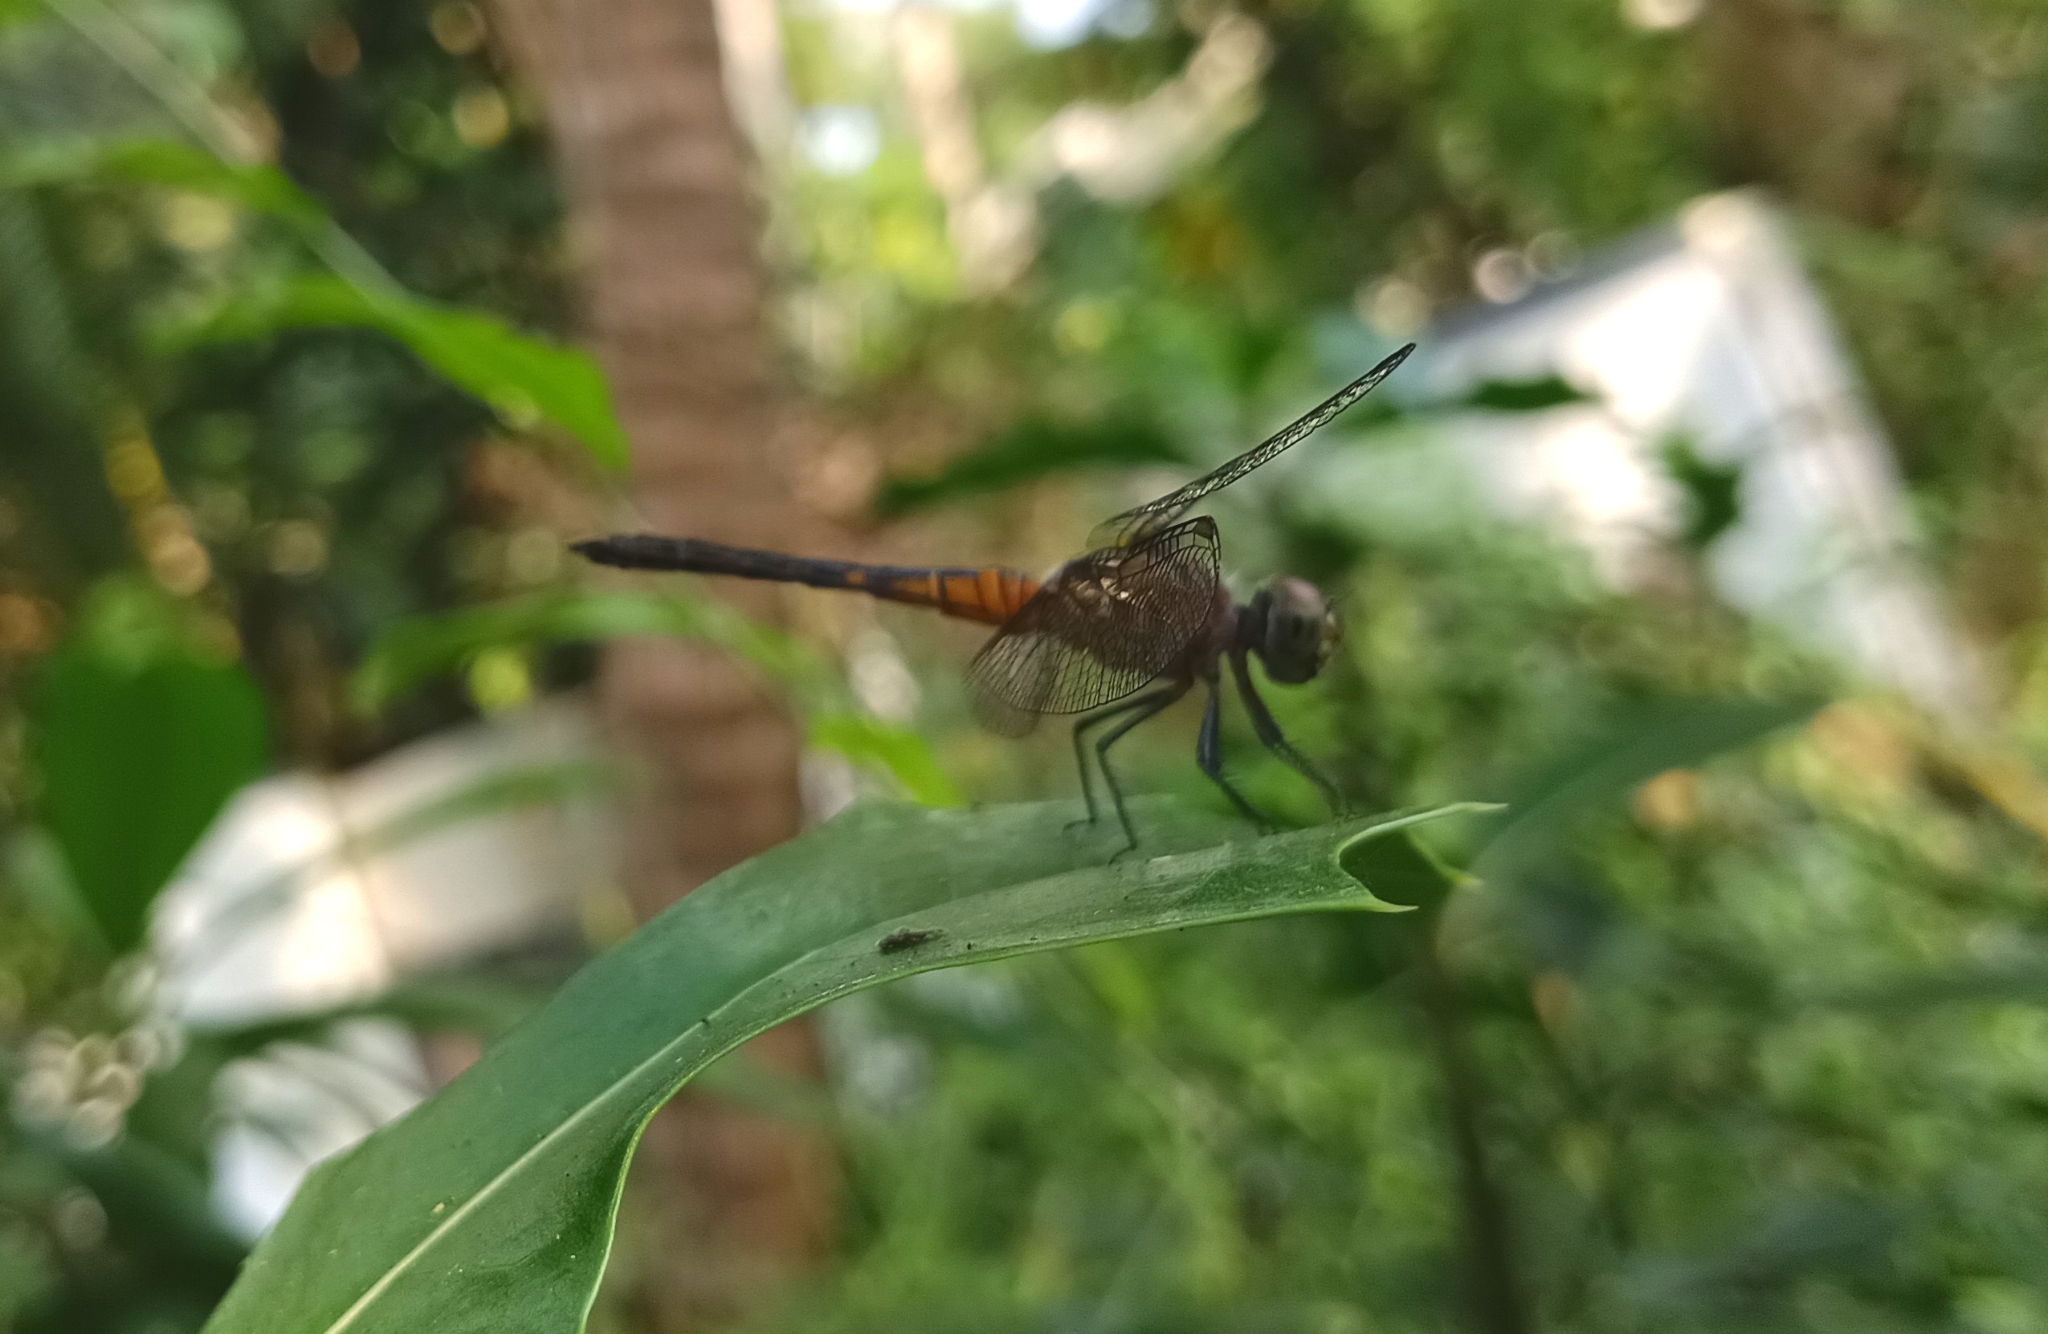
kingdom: Animalia
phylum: Arthropoda
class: Insecta
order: Odonata
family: Libellulidae
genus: Brachydiplax
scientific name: Brachydiplax chalybea
